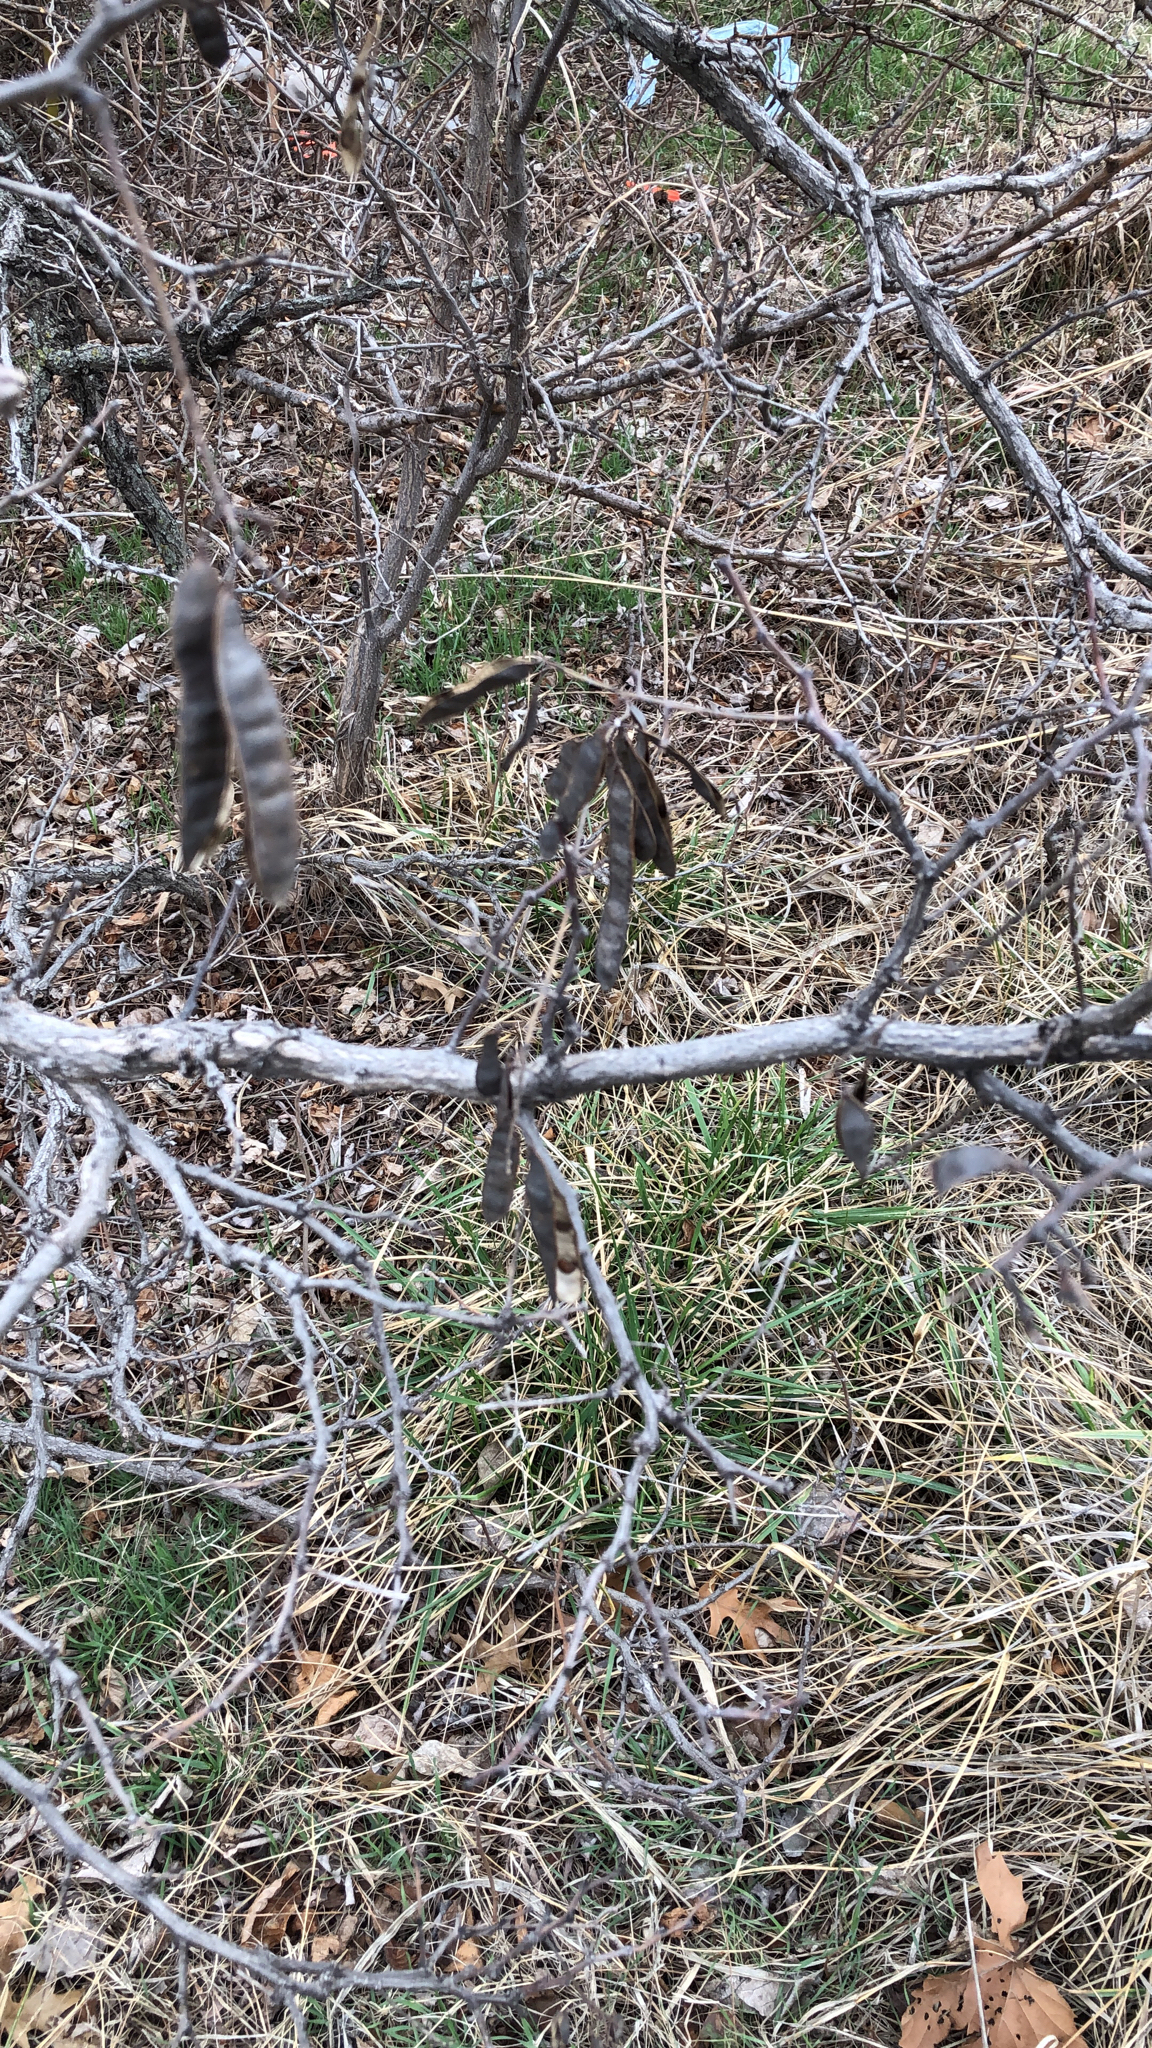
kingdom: Plantae
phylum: Tracheophyta
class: Magnoliopsida
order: Fabales
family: Fabaceae
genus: Cercis
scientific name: Cercis canadensis
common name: Eastern redbud
